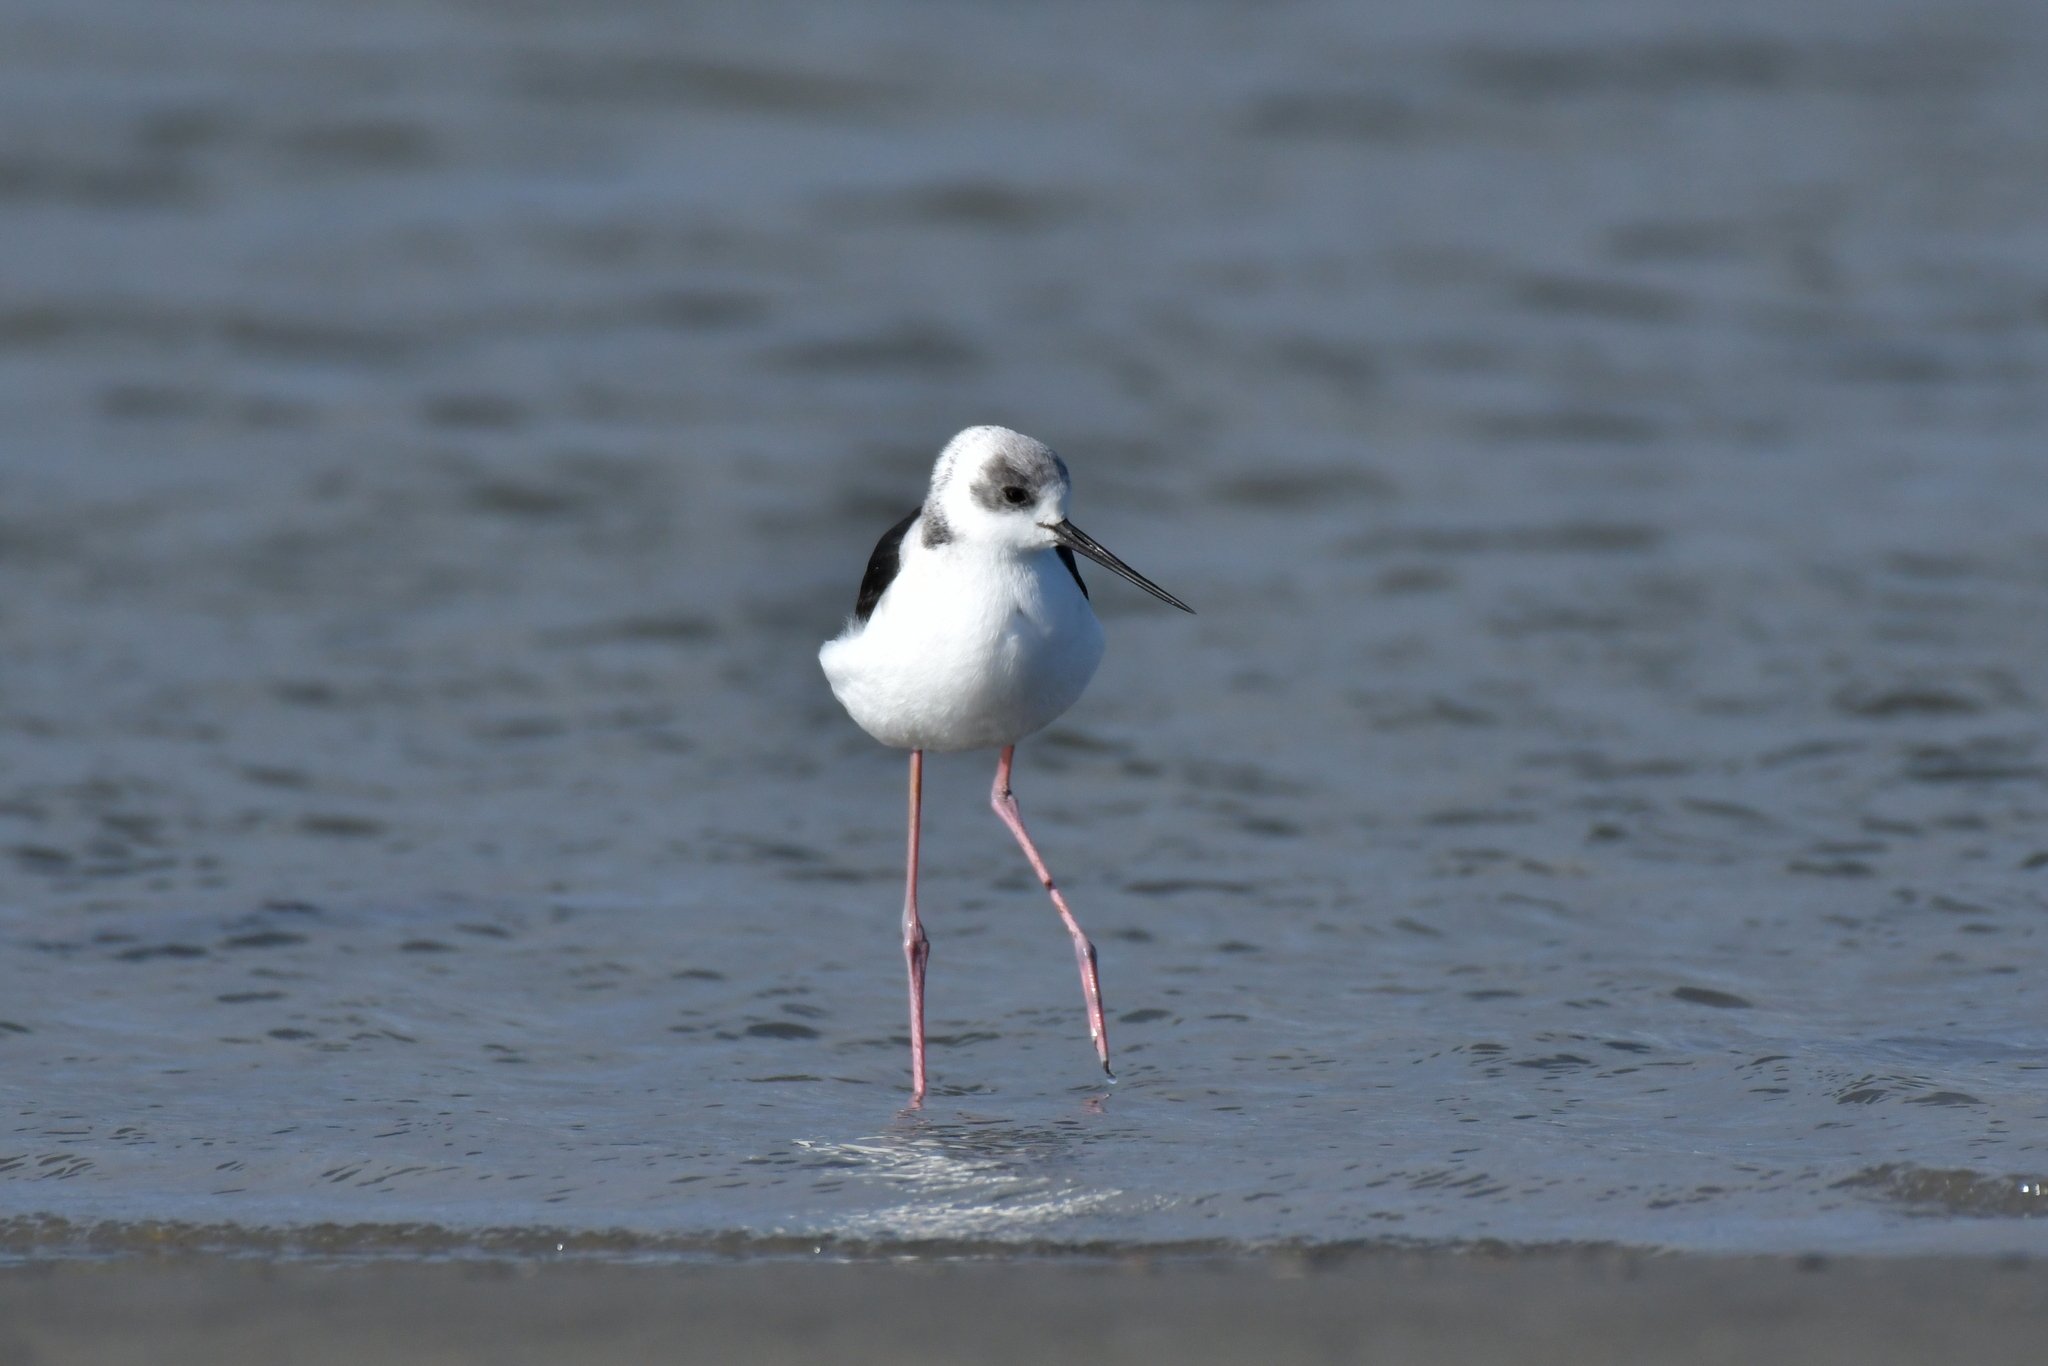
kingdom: Animalia
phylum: Chordata
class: Aves
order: Charadriiformes
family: Recurvirostridae
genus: Himantopus
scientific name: Himantopus leucocephalus
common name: White-headed stilt
